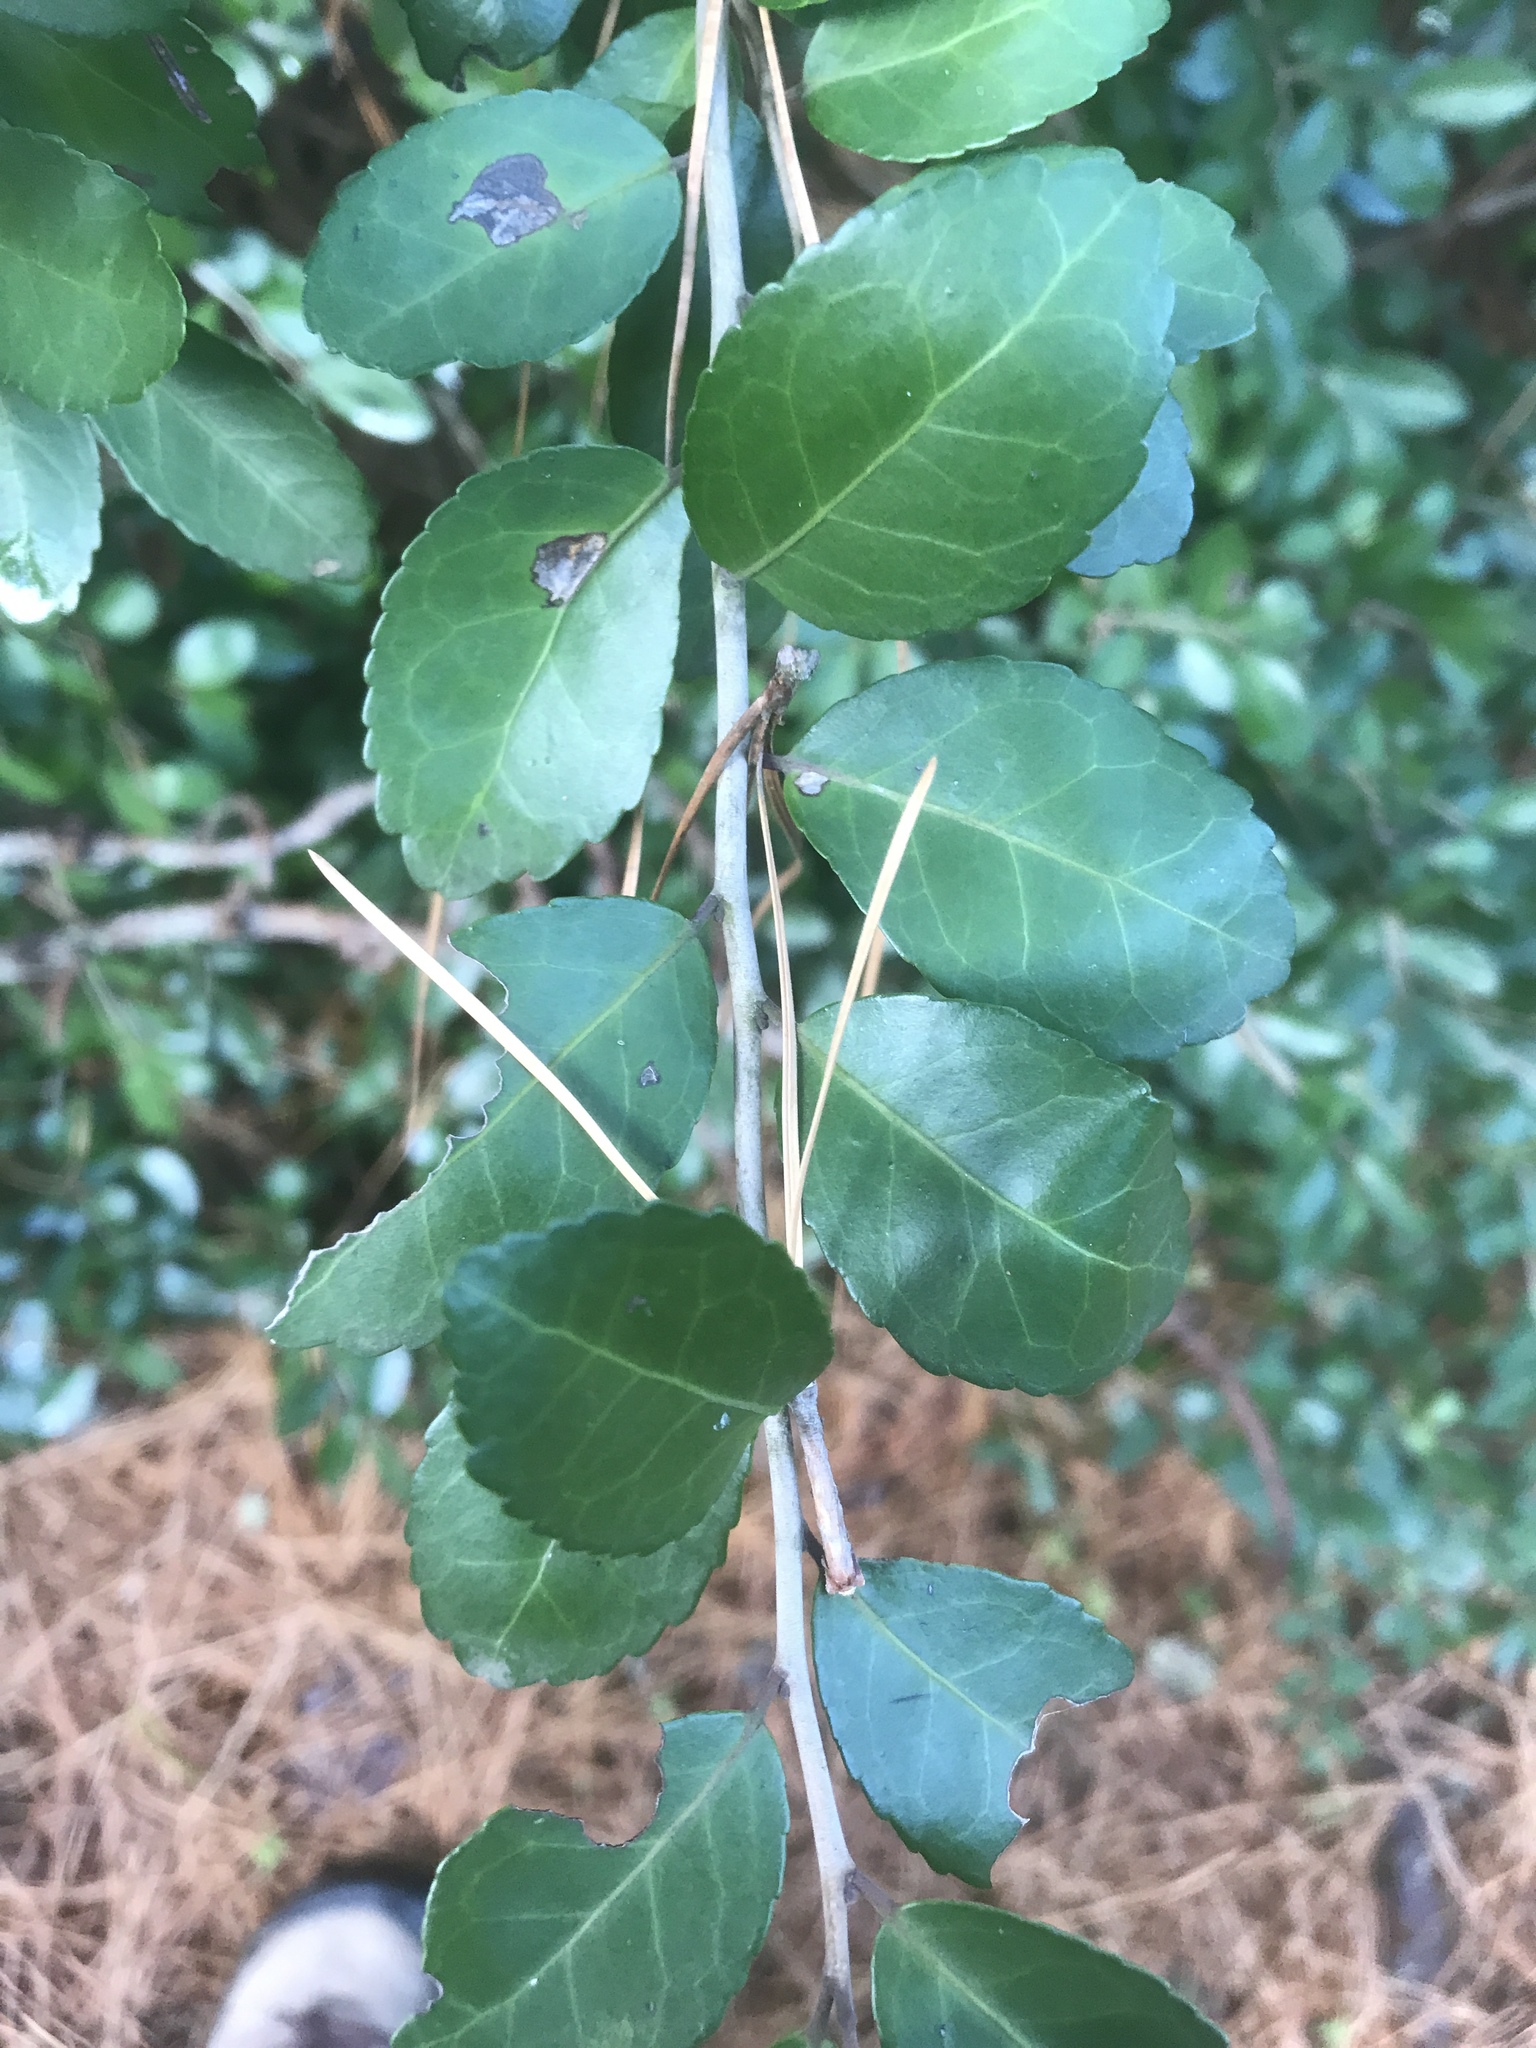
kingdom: Plantae
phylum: Tracheophyta
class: Magnoliopsida
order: Aquifoliales
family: Aquifoliaceae
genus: Ilex
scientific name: Ilex vomitoria
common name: Yaupon holly
